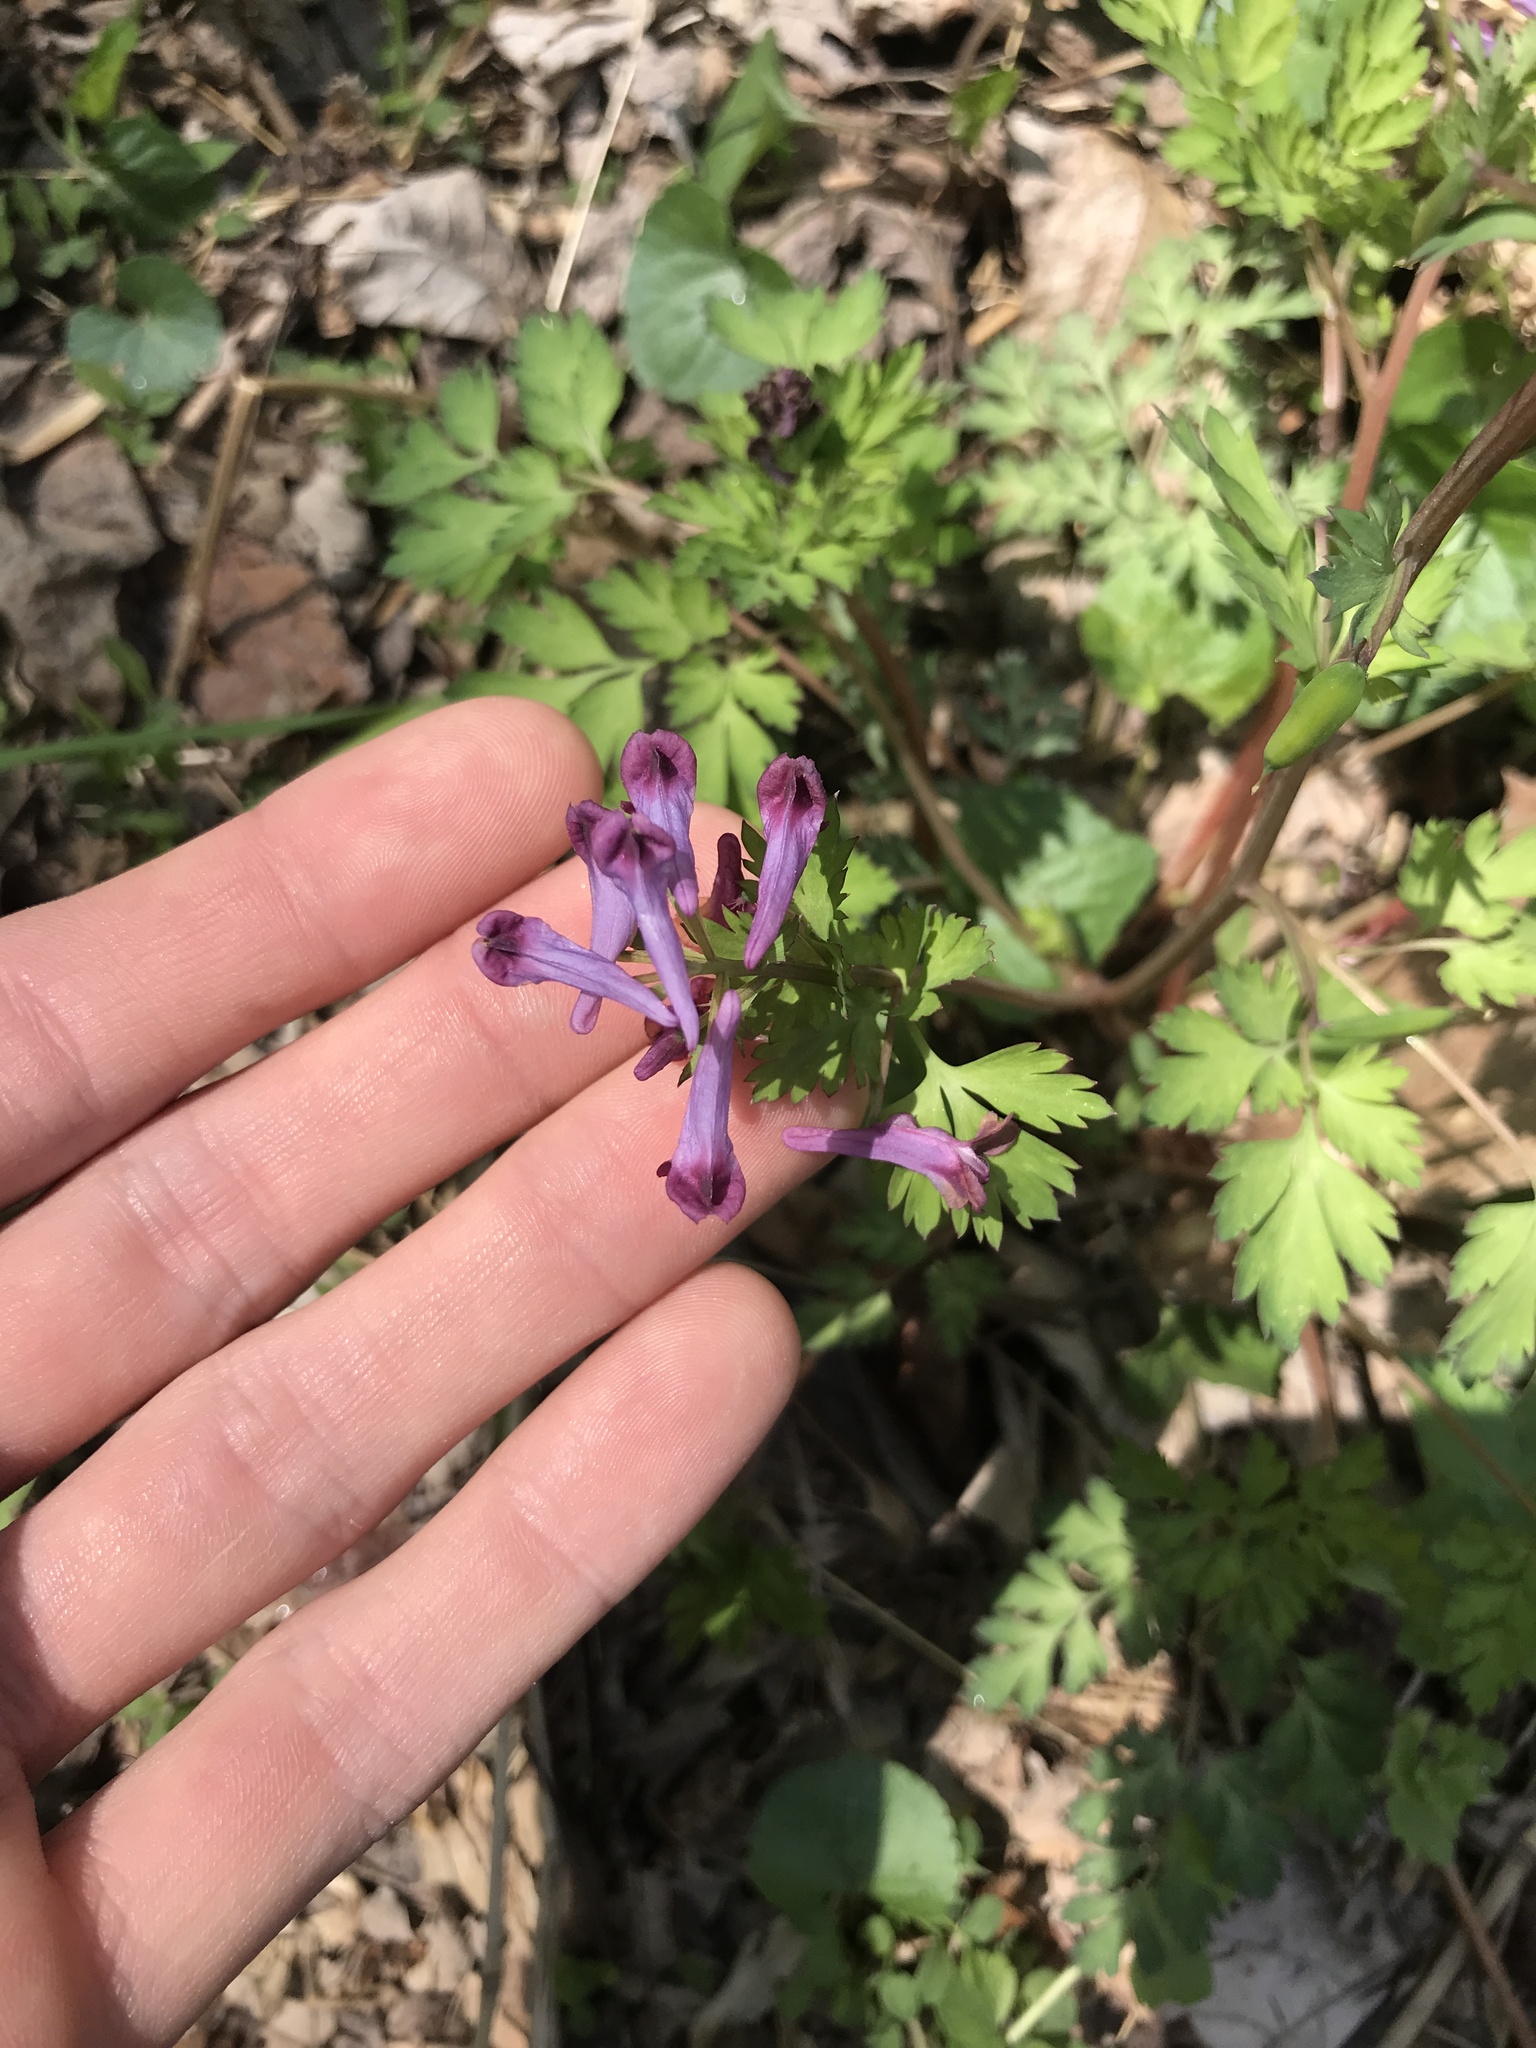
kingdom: Plantae
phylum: Tracheophyta
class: Magnoliopsida
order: Ranunculales
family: Papaveraceae
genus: Corydalis
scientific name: Corydalis incisa
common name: Incised fumewort
